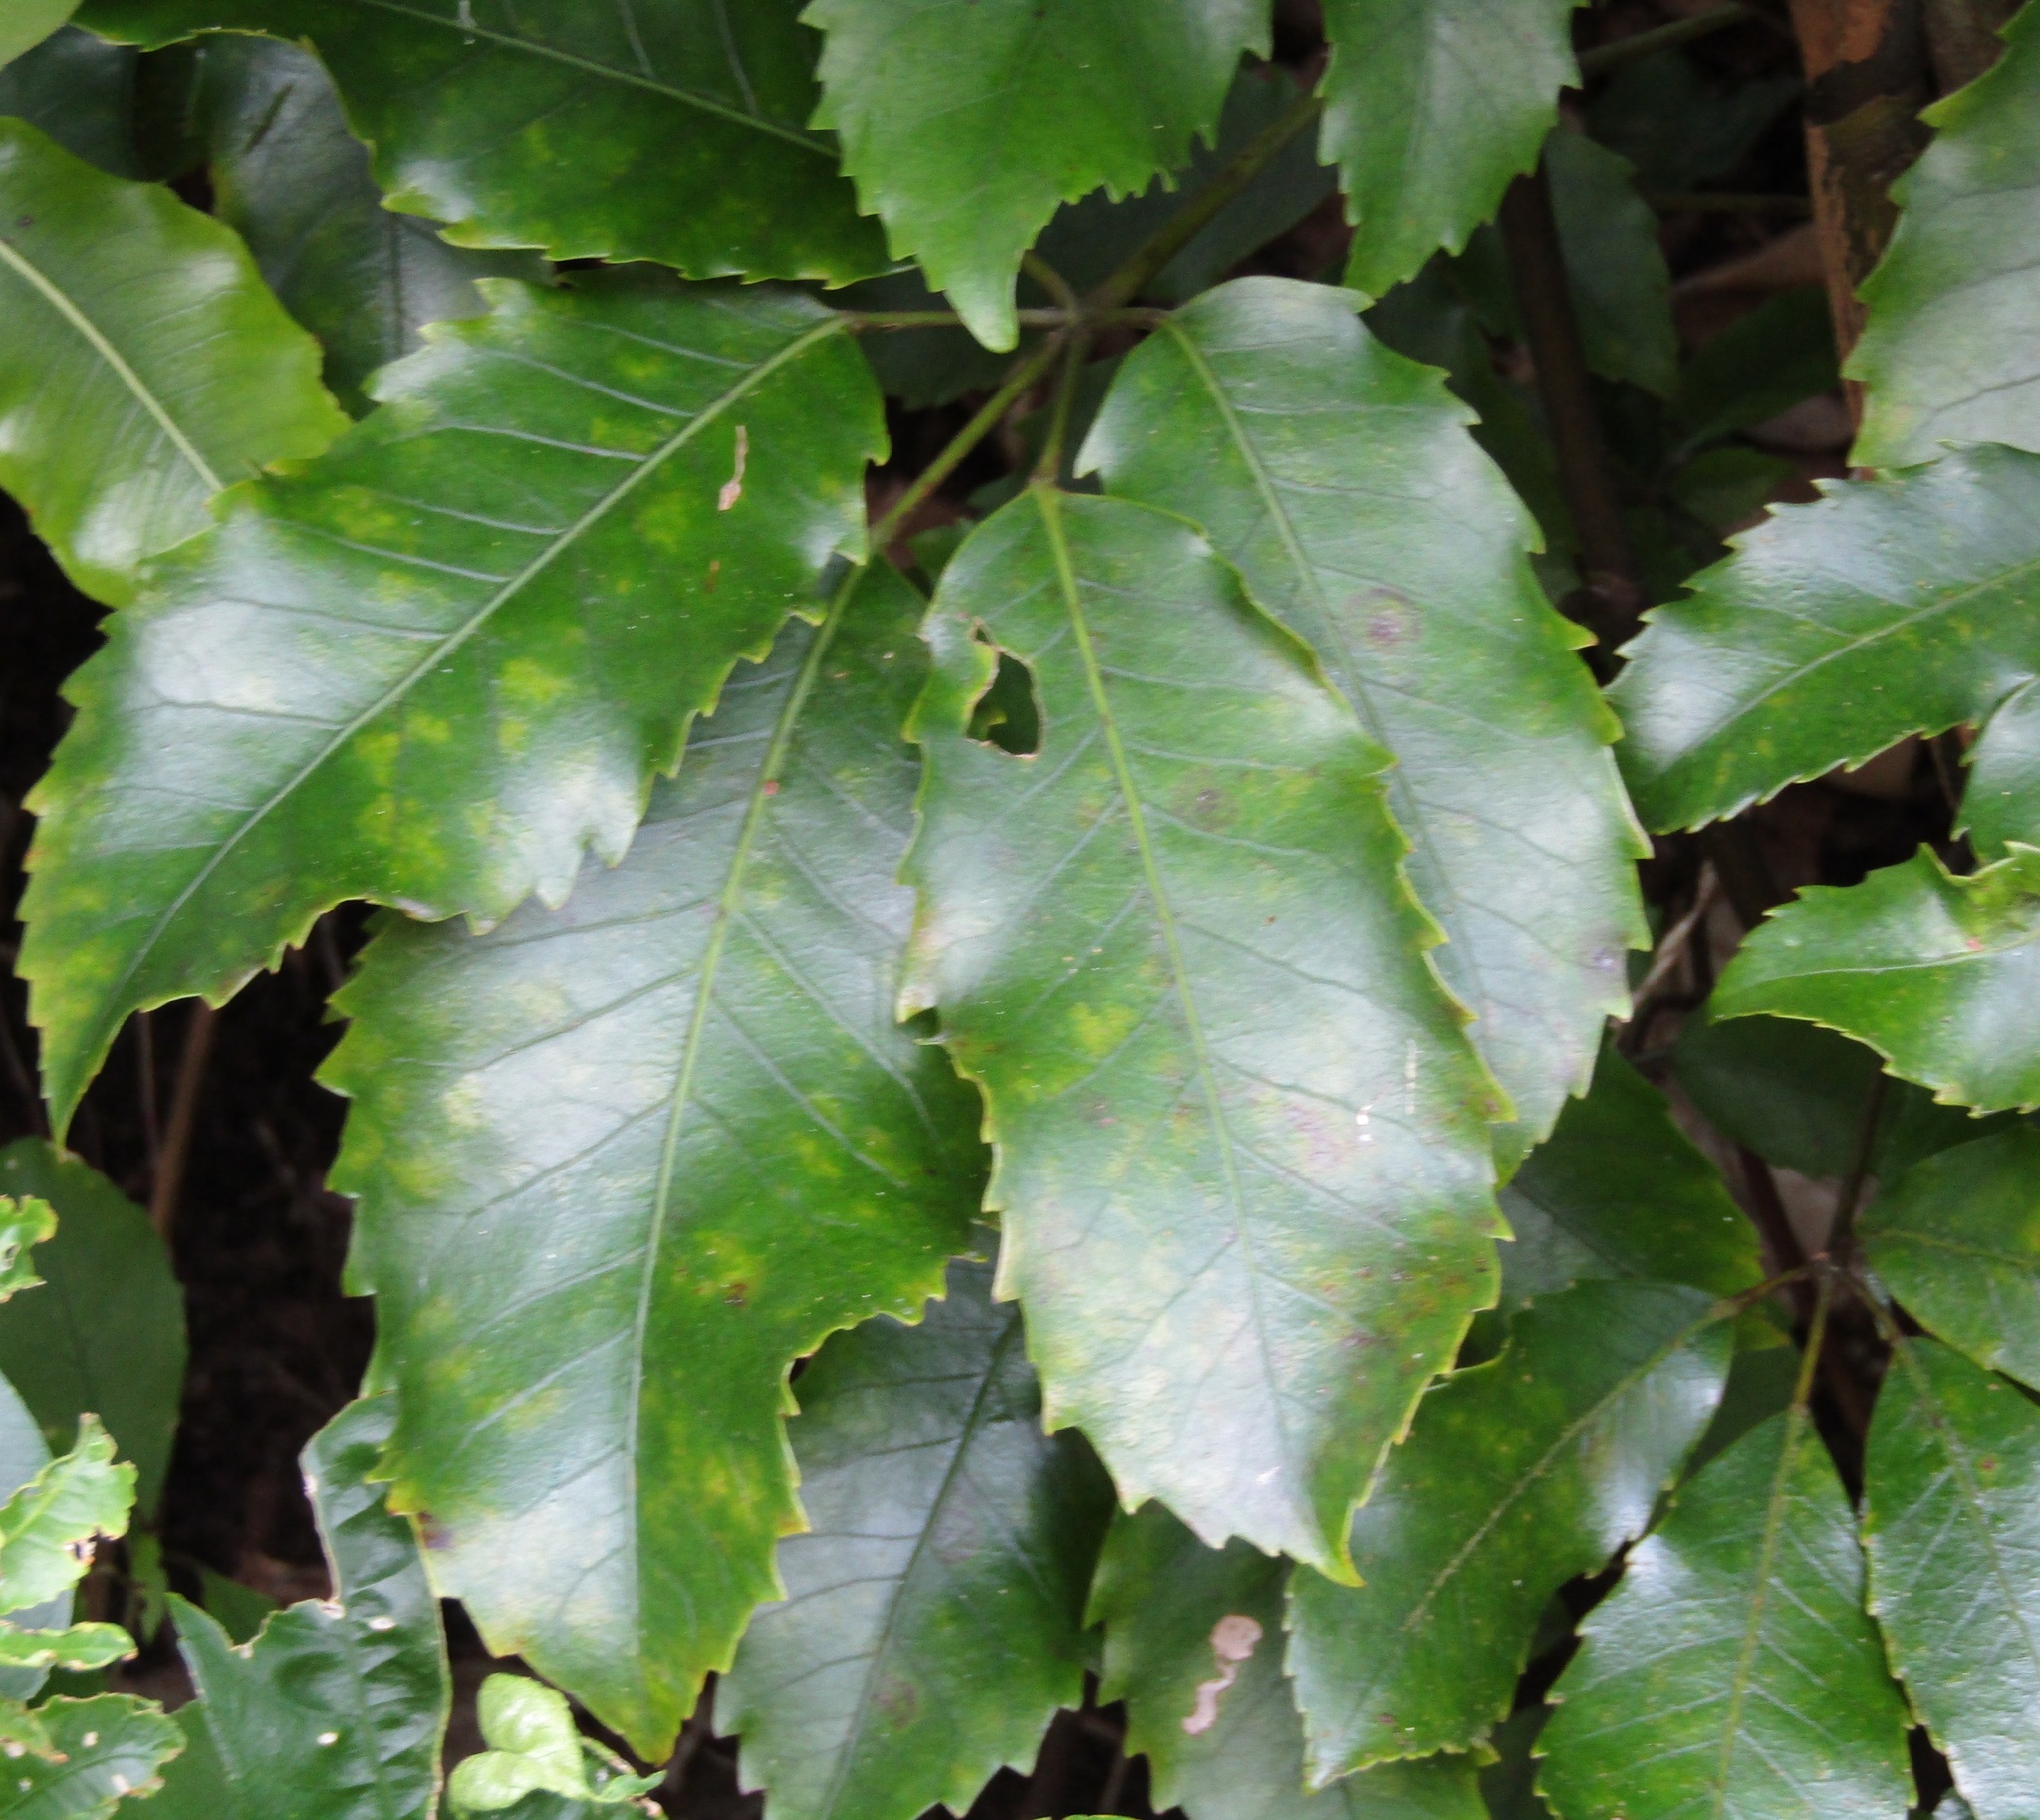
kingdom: Plantae
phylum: Tracheophyta
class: Magnoliopsida
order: Apiales
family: Araliaceae
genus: Neopanax
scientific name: Neopanax arboreus
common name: Five-fingers
